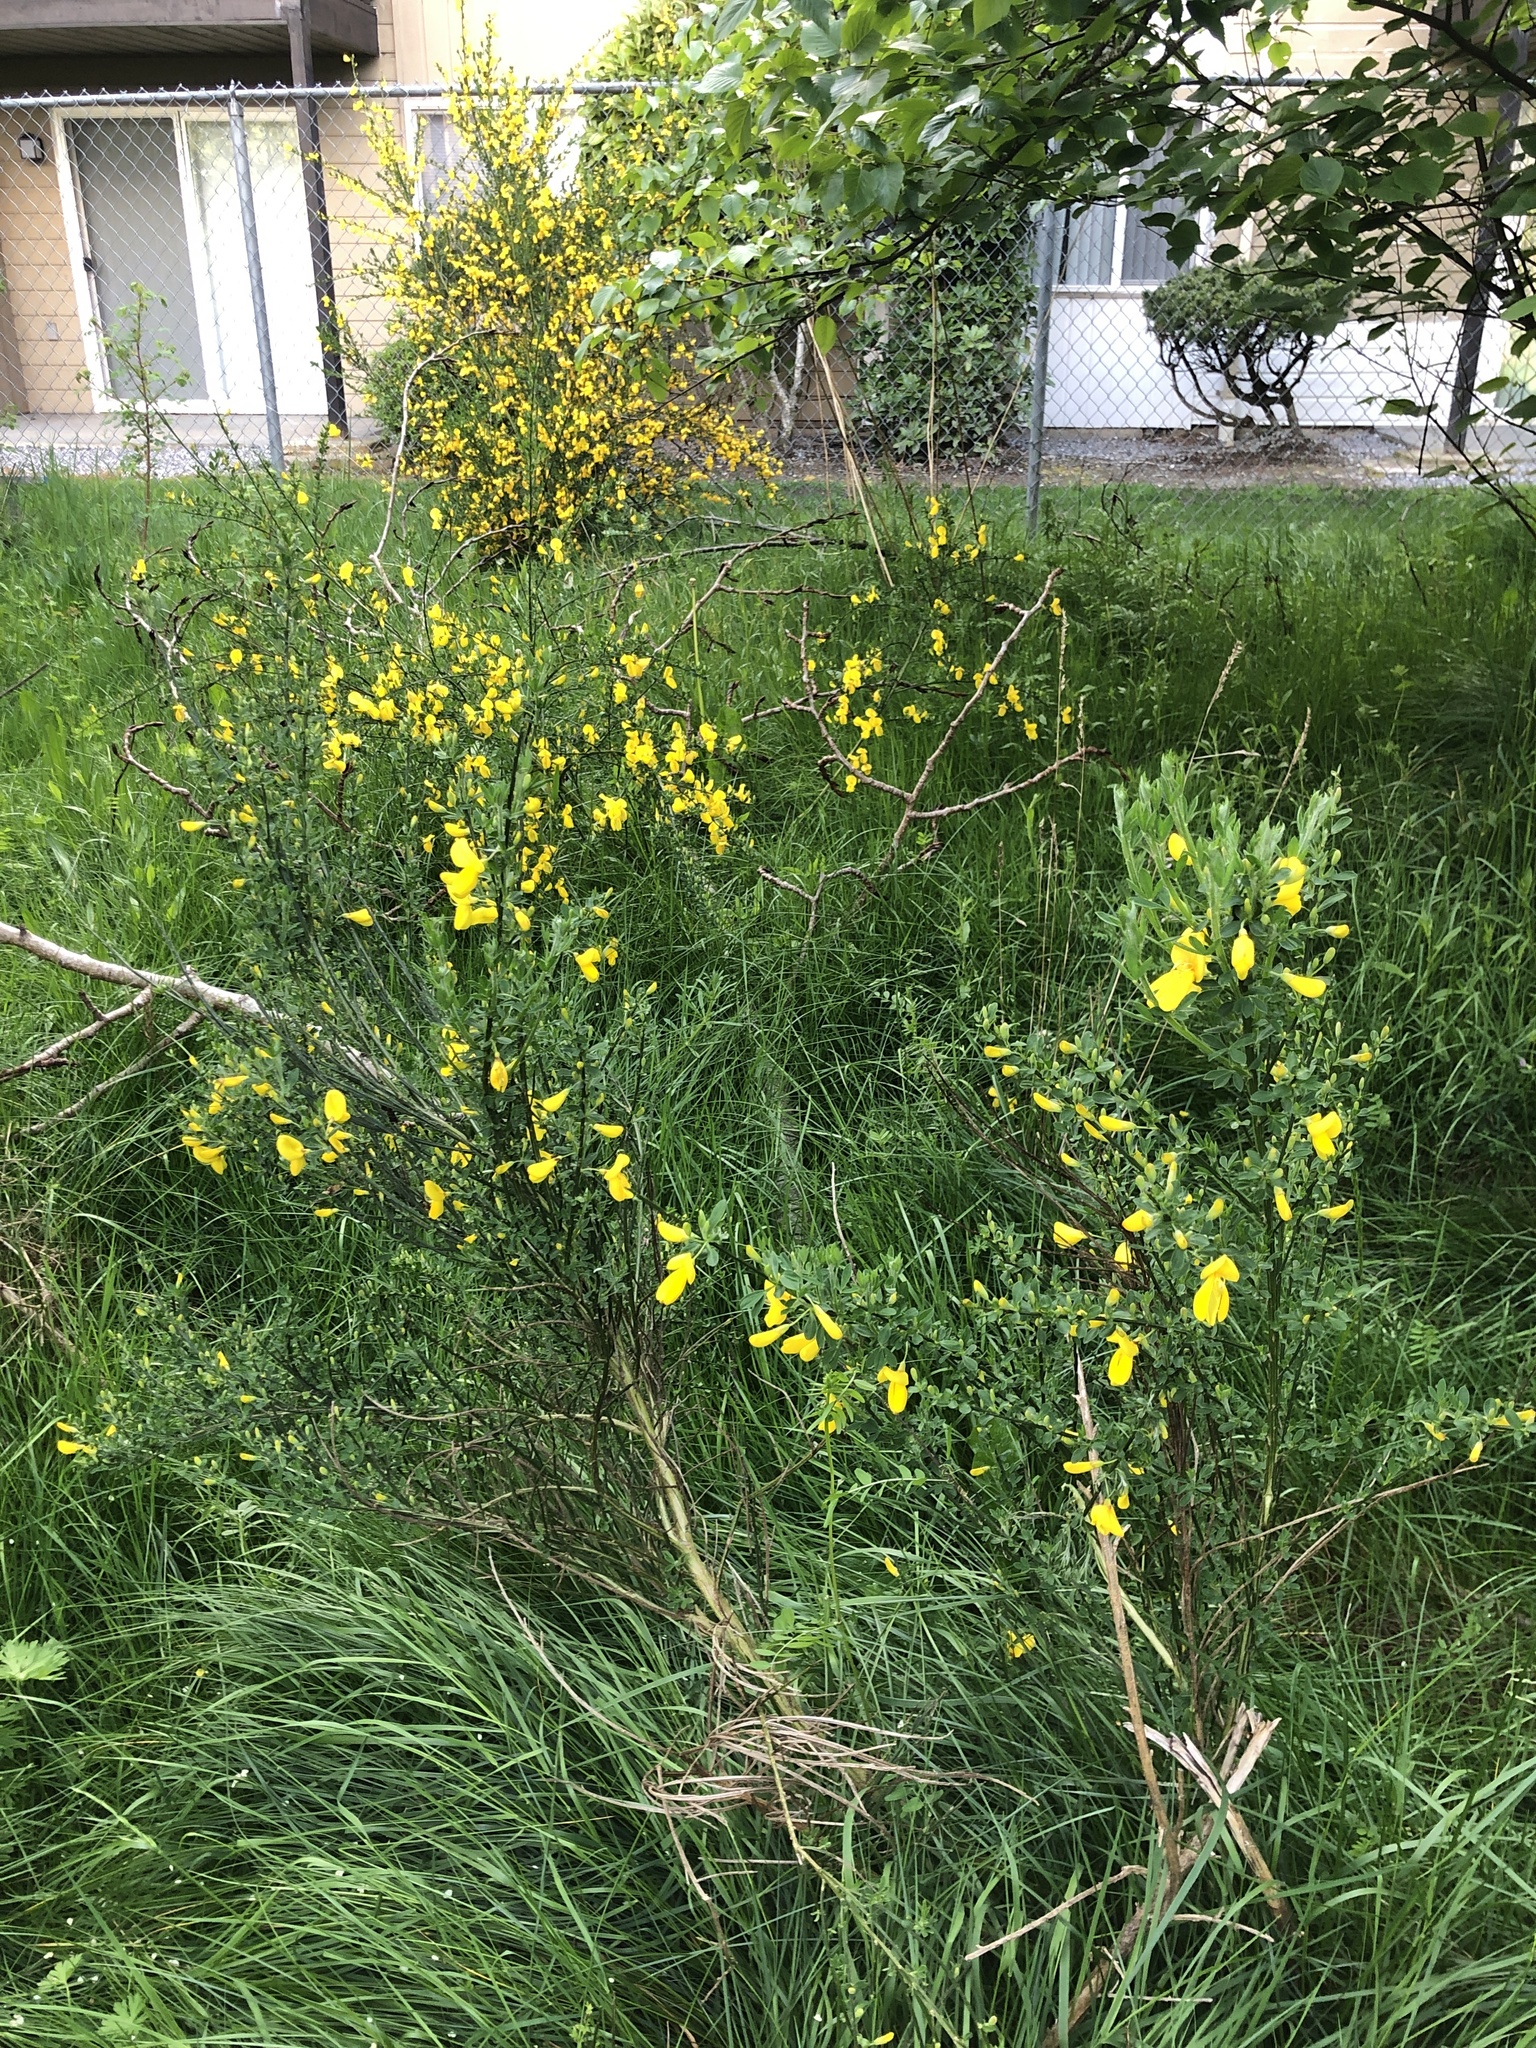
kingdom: Plantae
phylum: Tracheophyta
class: Magnoliopsida
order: Fabales
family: Fabaceae
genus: Cytisus
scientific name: Cytisus scoparius
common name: Scotch broom
